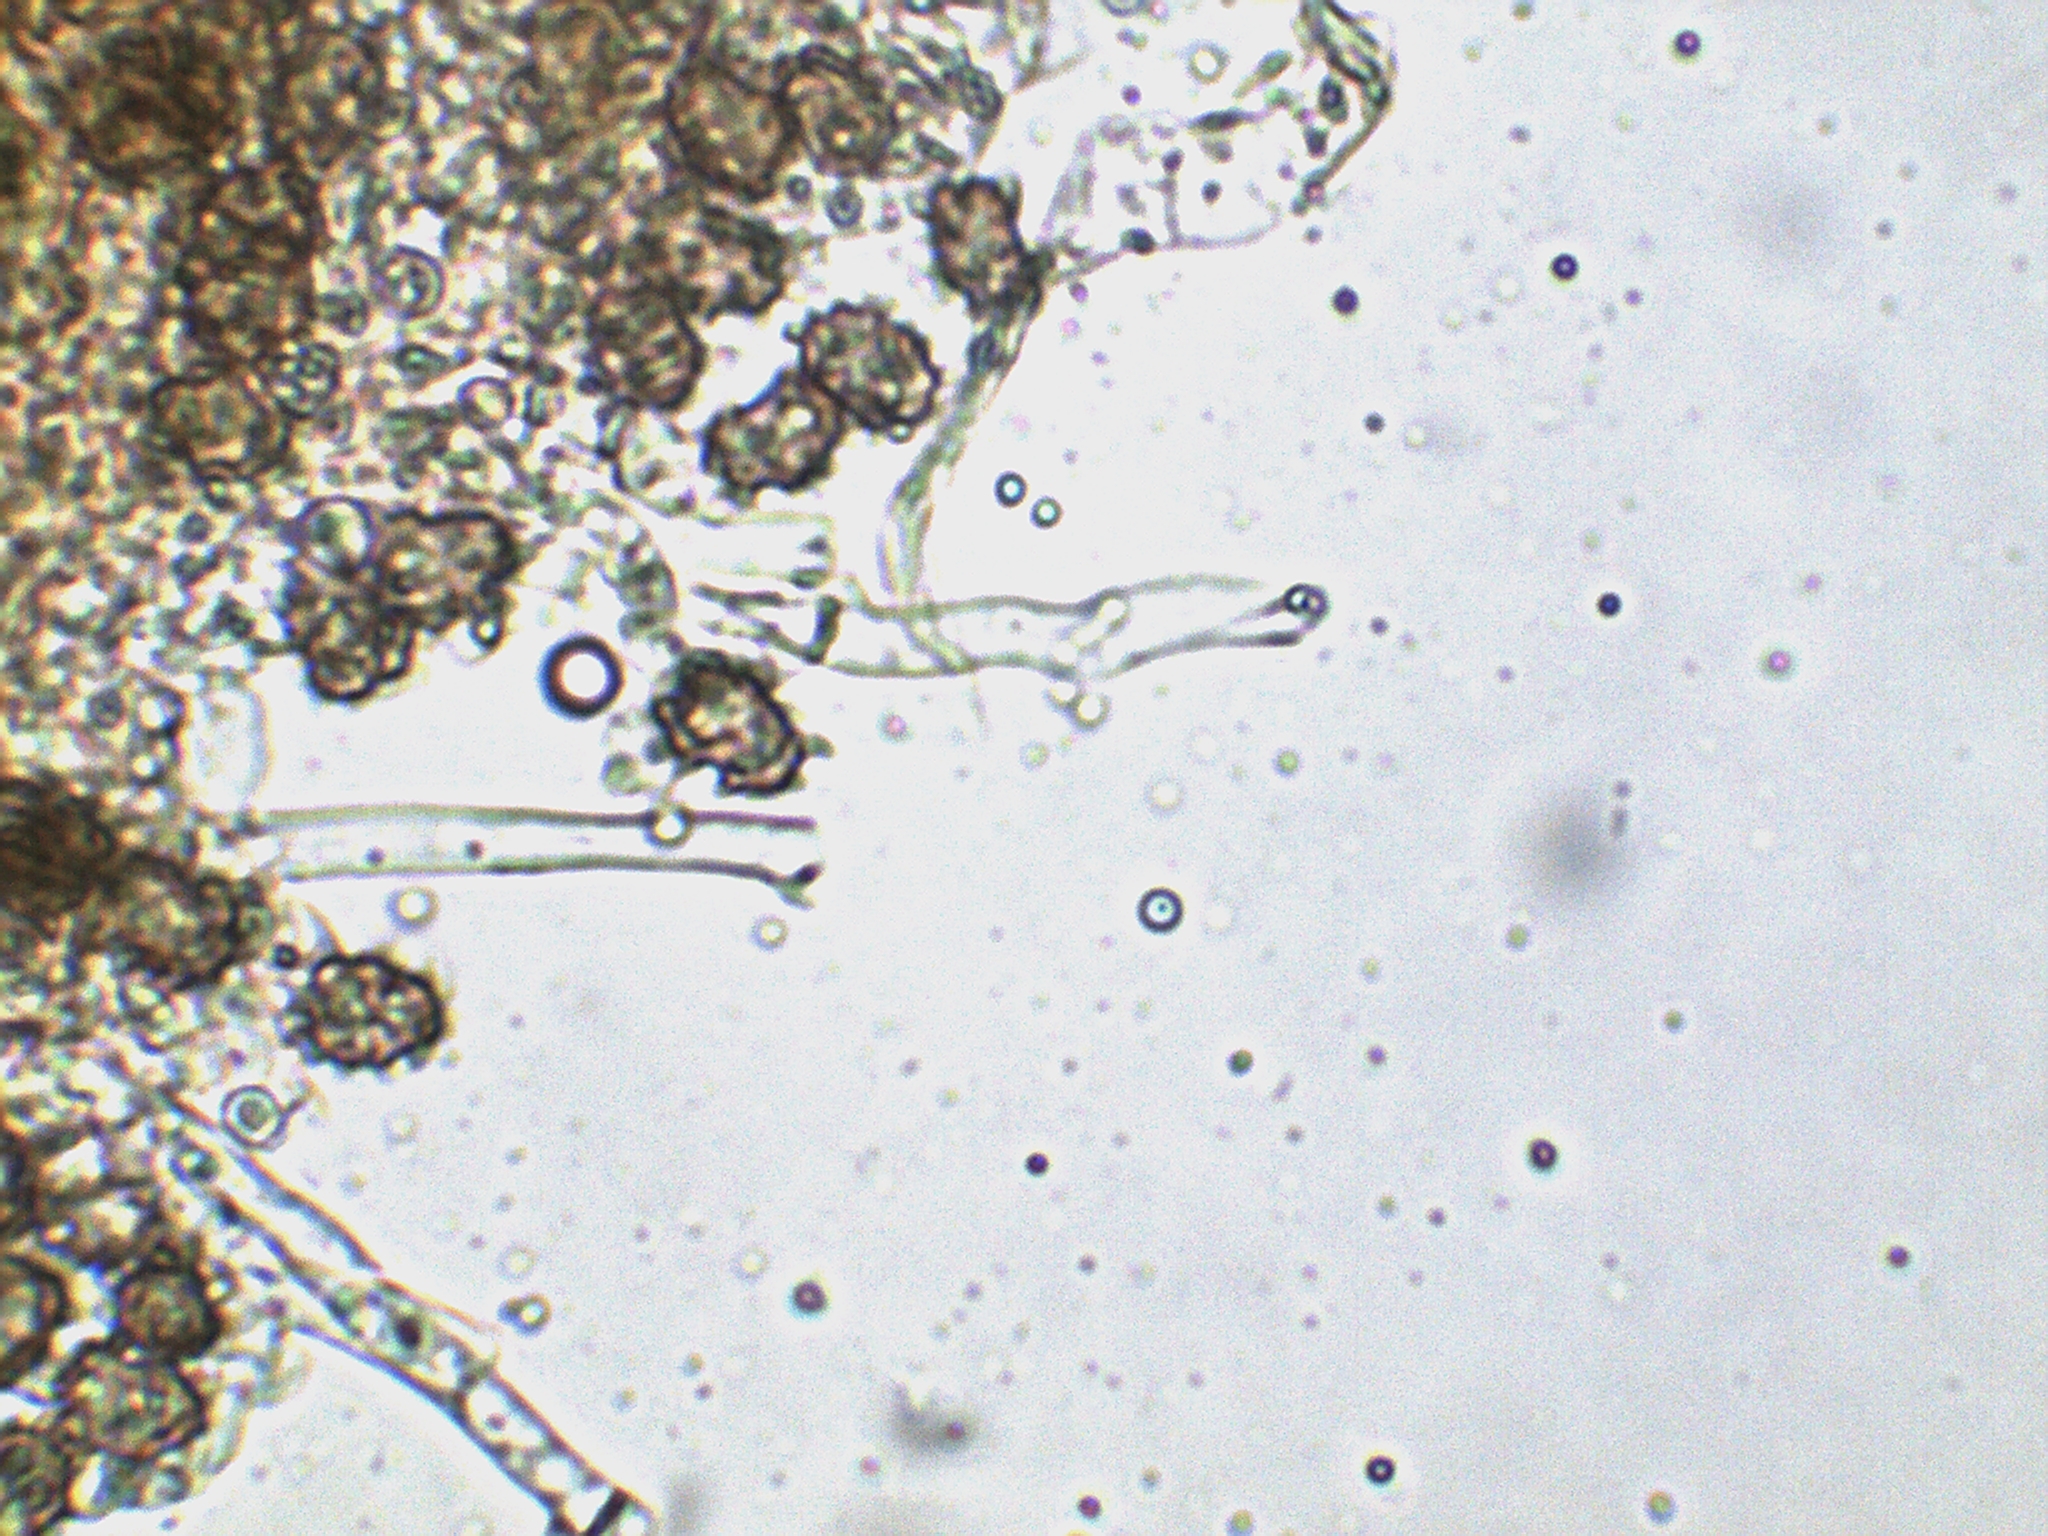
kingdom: Fungi
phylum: Basidiomycota
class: Agaricomycetes
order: Thelephorales
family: Thelephoraceae
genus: Thelephora
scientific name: Thelephora anthocephala
